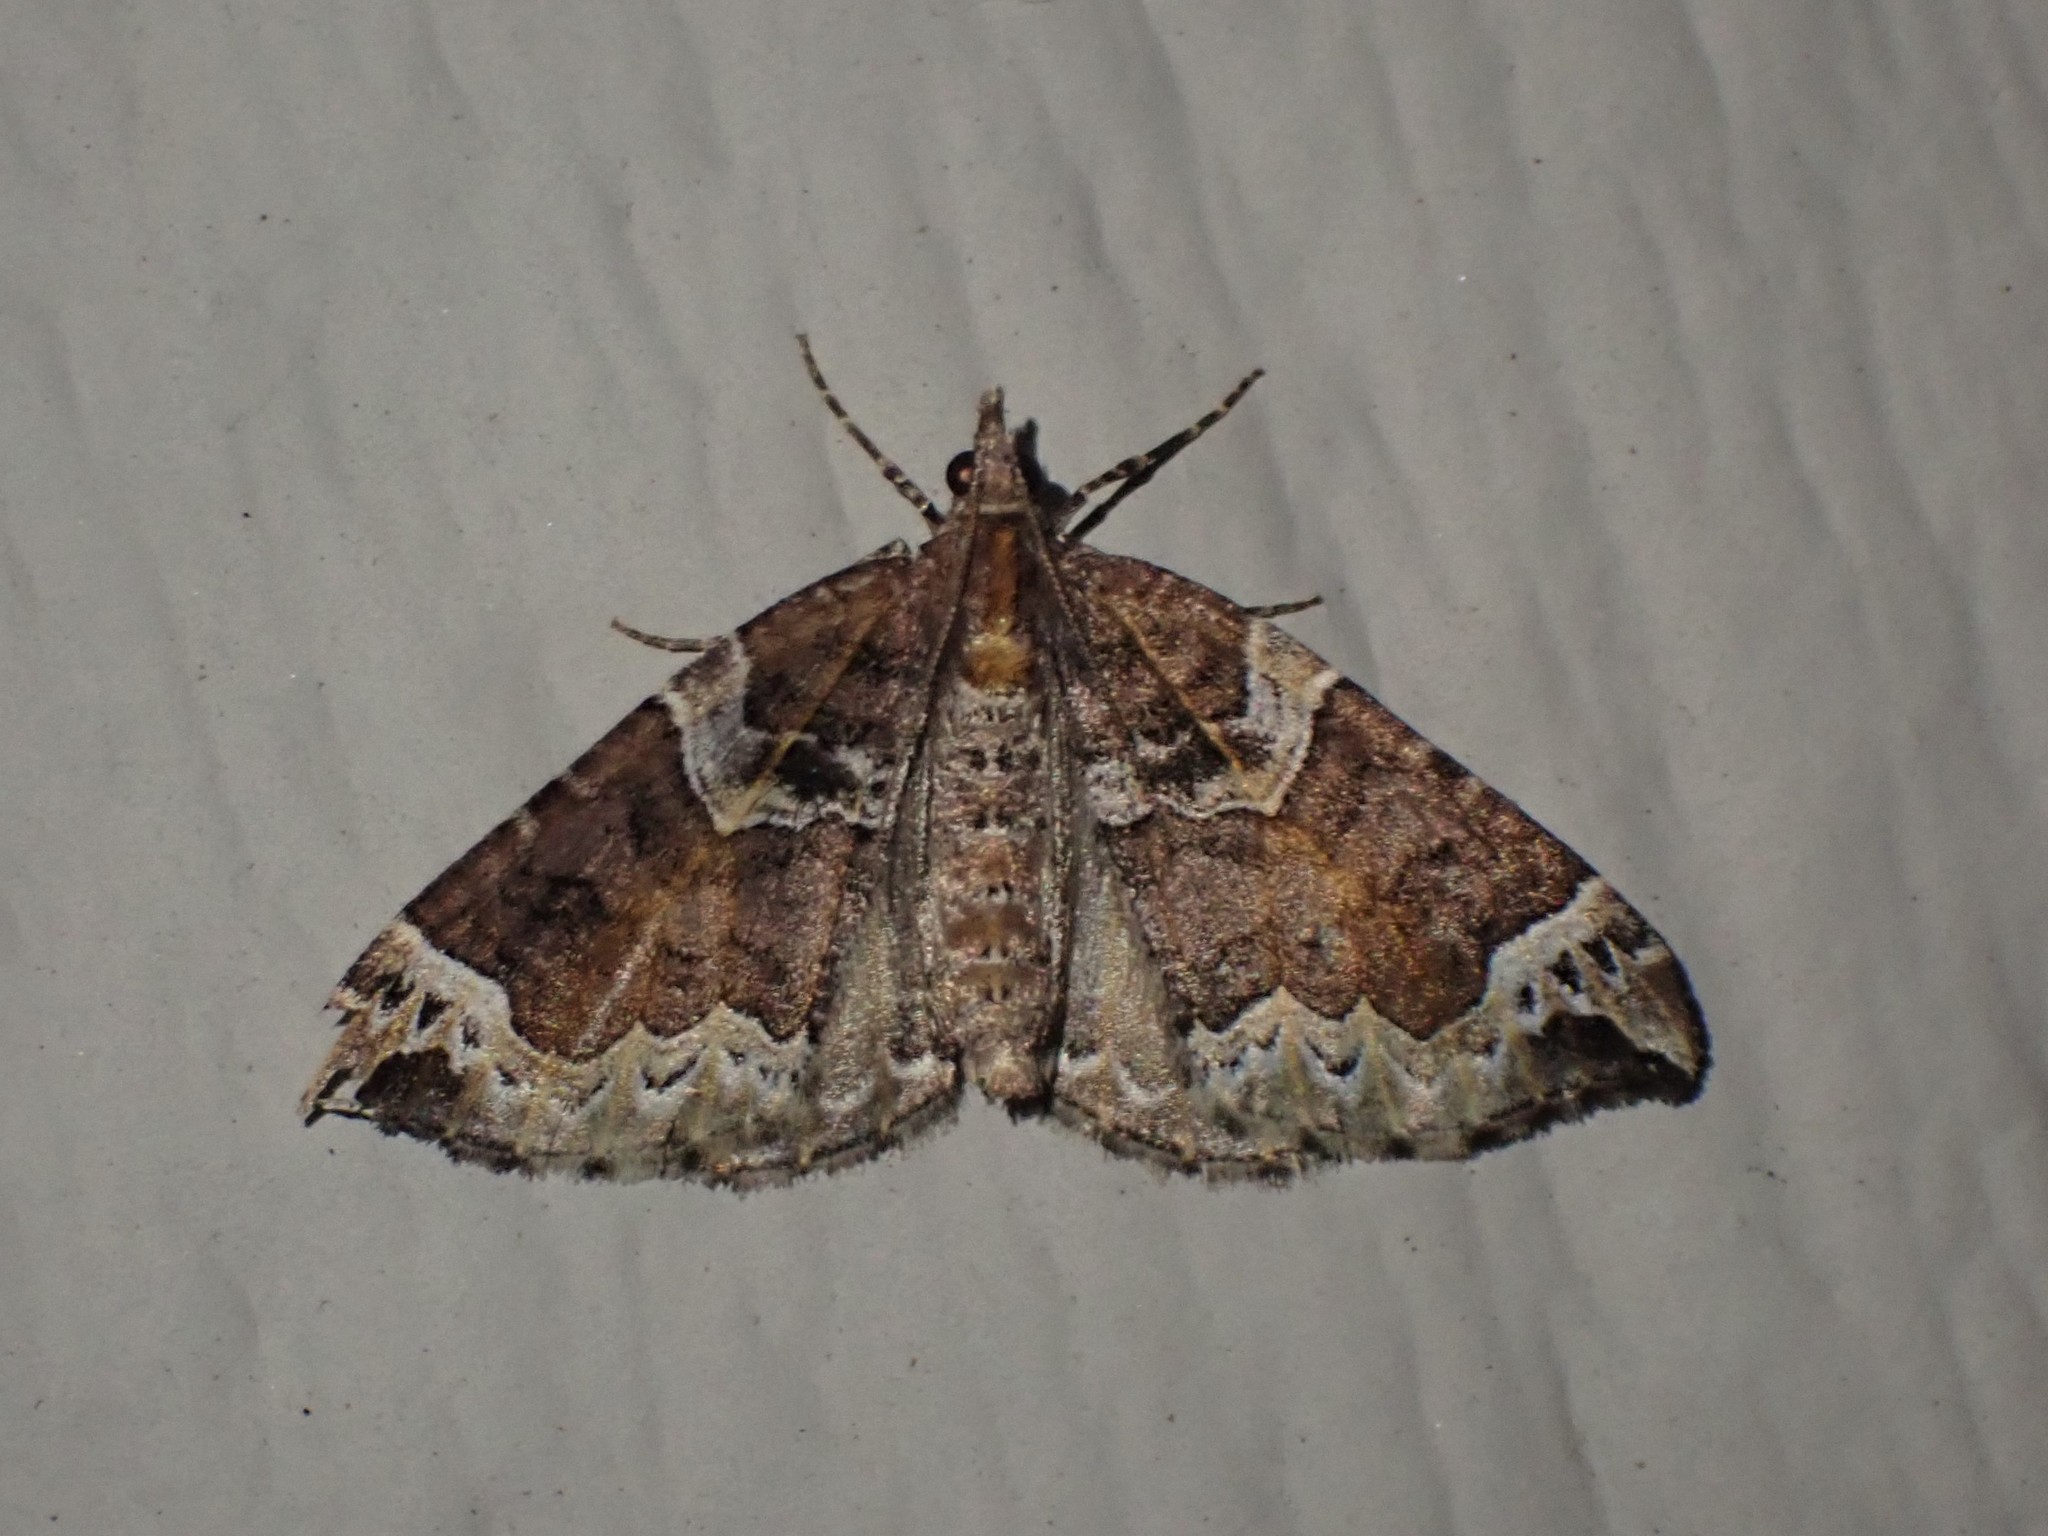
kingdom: Animalia
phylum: Arthropoda
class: Insecta
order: Lepidoptera
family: Geometridae
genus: Eulithis
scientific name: Eulithis xylina
